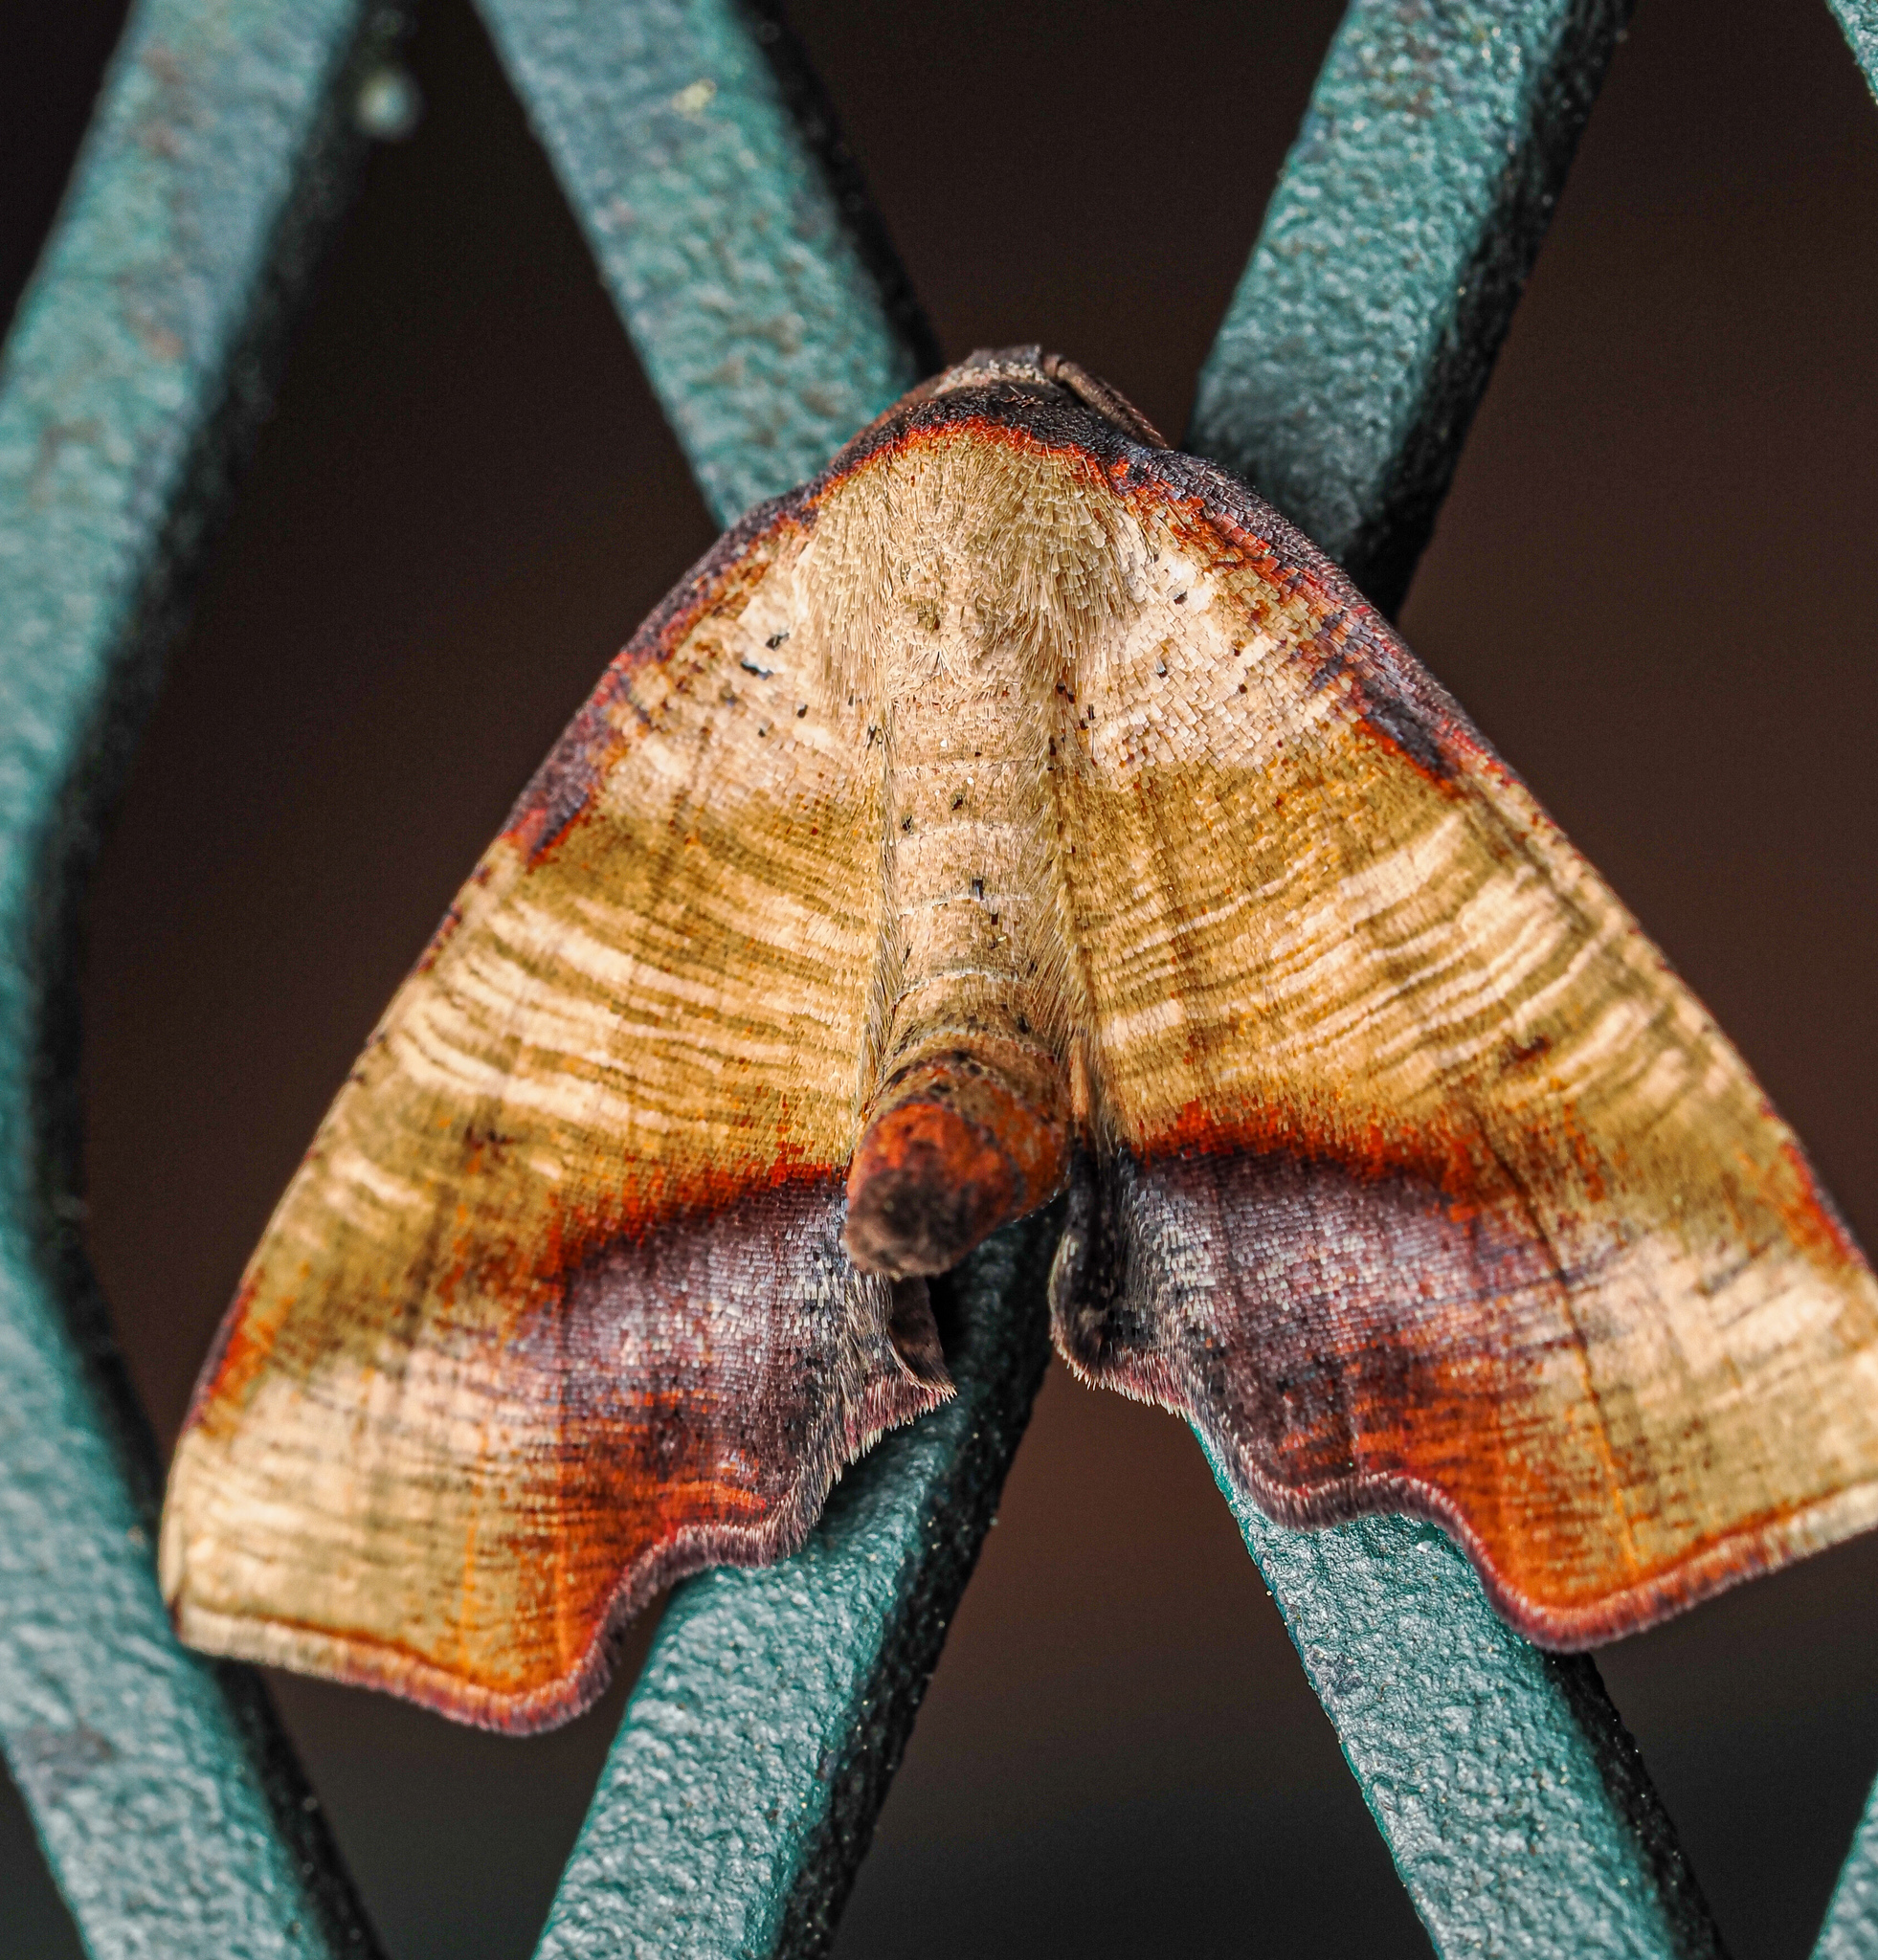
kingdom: Animalia
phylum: Arthropoda
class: Insecta
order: Lepidoptera
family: Geometridae
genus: Plagodis
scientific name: Plagodis fervidaria
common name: Fervid plagodis
